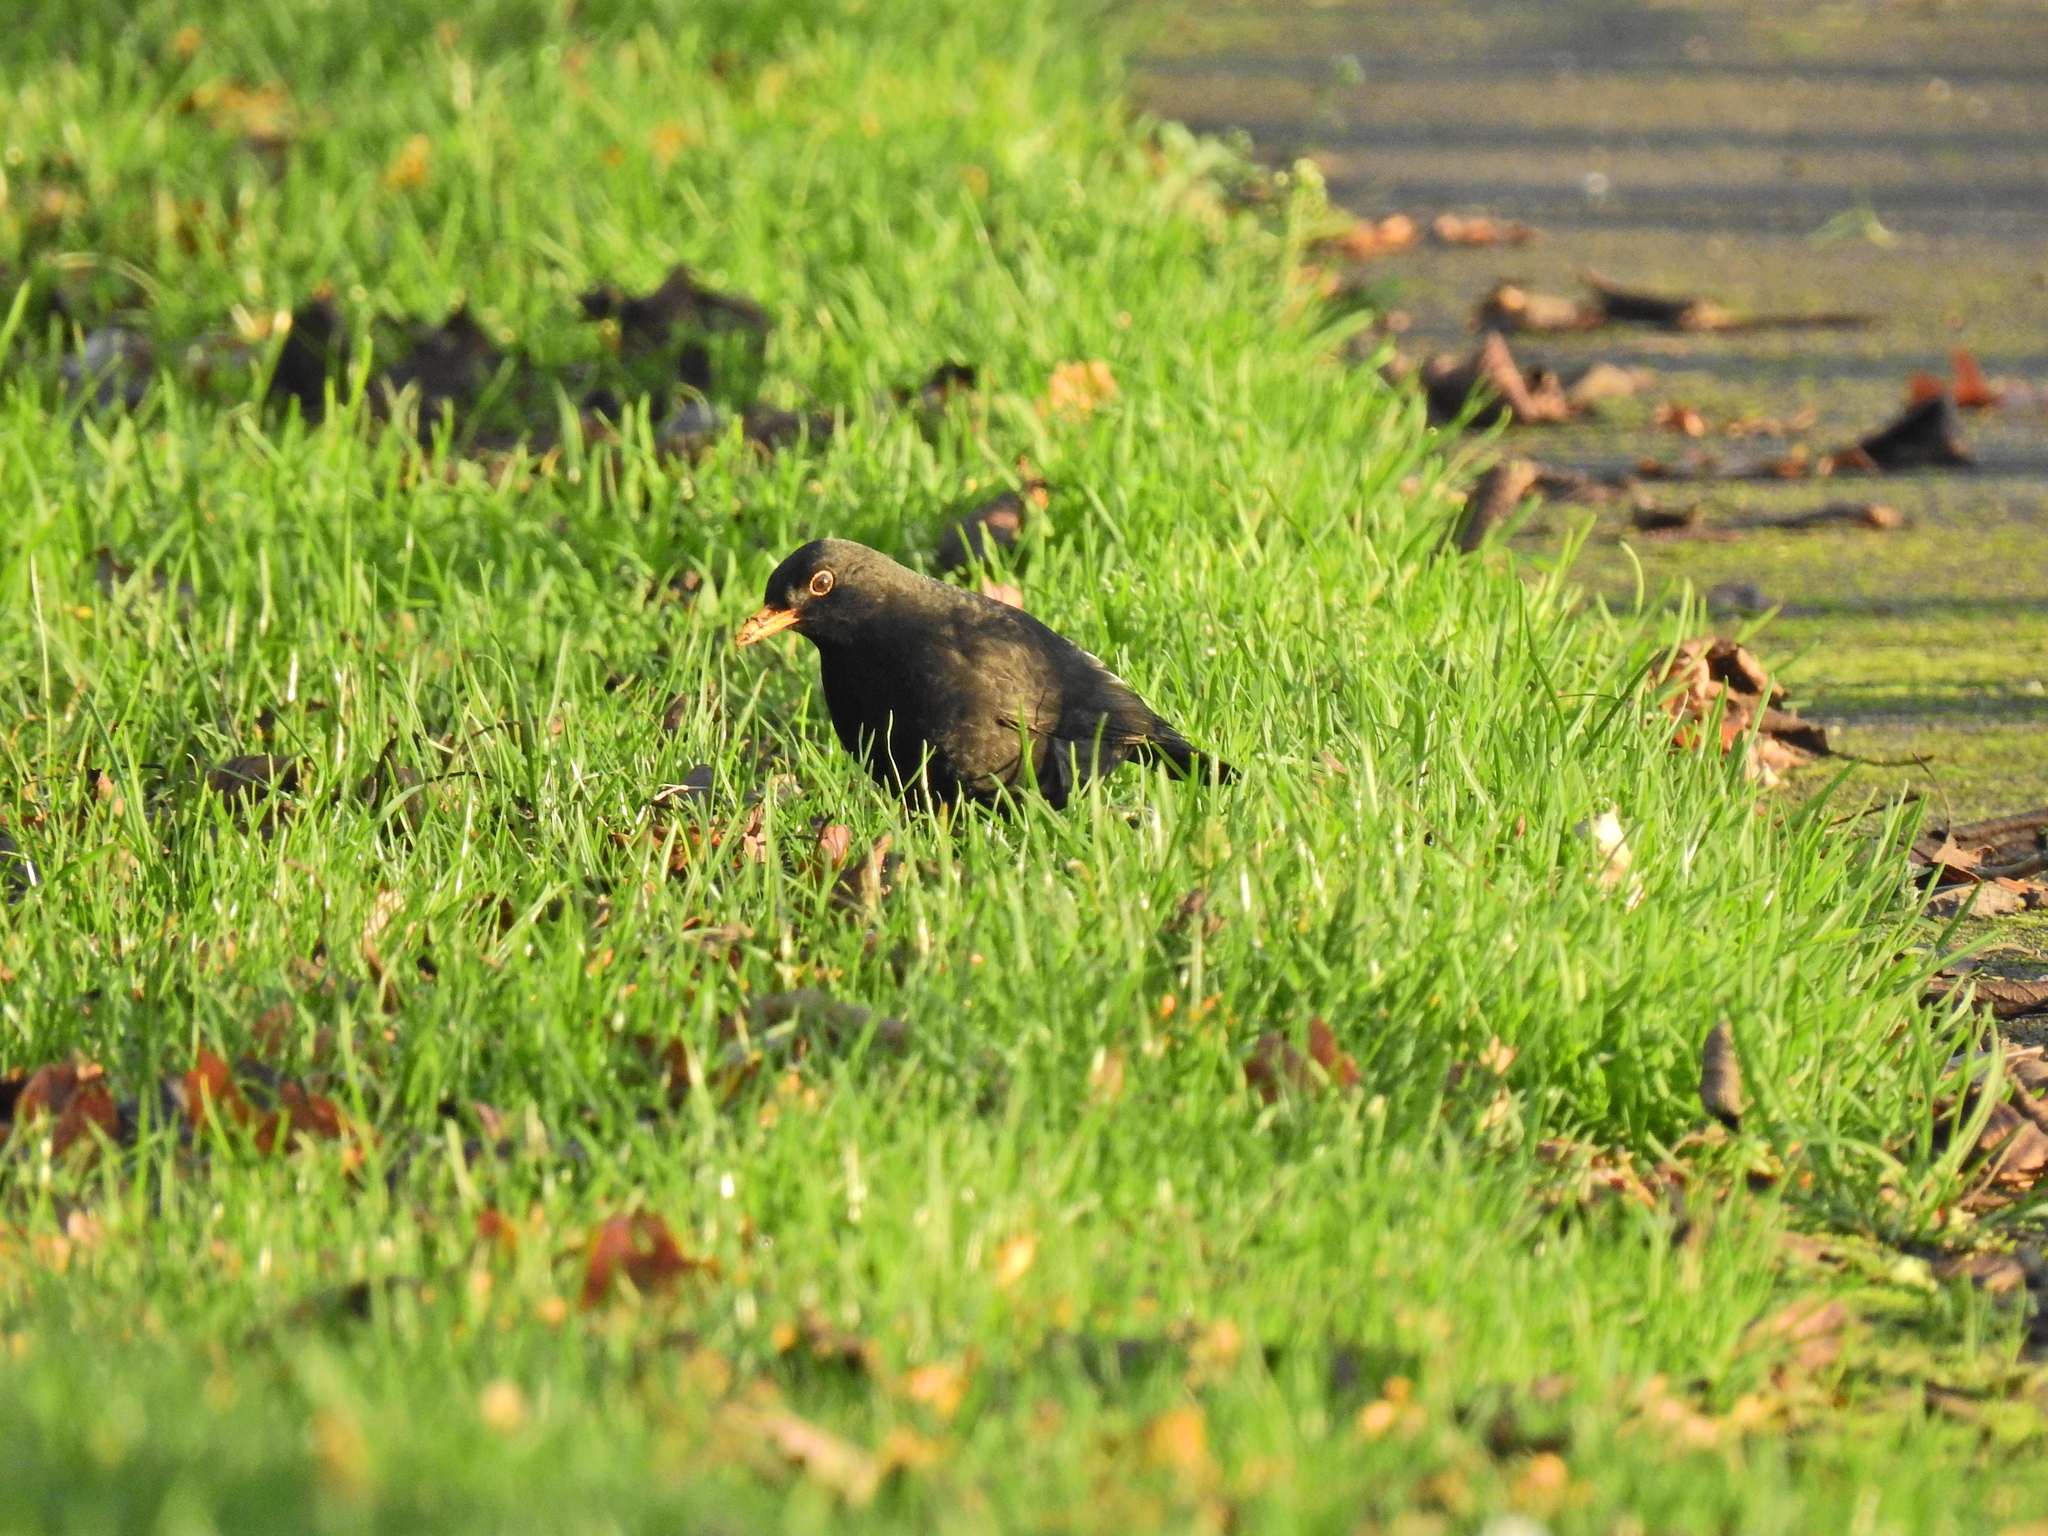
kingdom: Animalia
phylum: Chordata
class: Aves
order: Passeriformes
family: Turdidae
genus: Turdus
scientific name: Turdus merula
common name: Common blackbird
